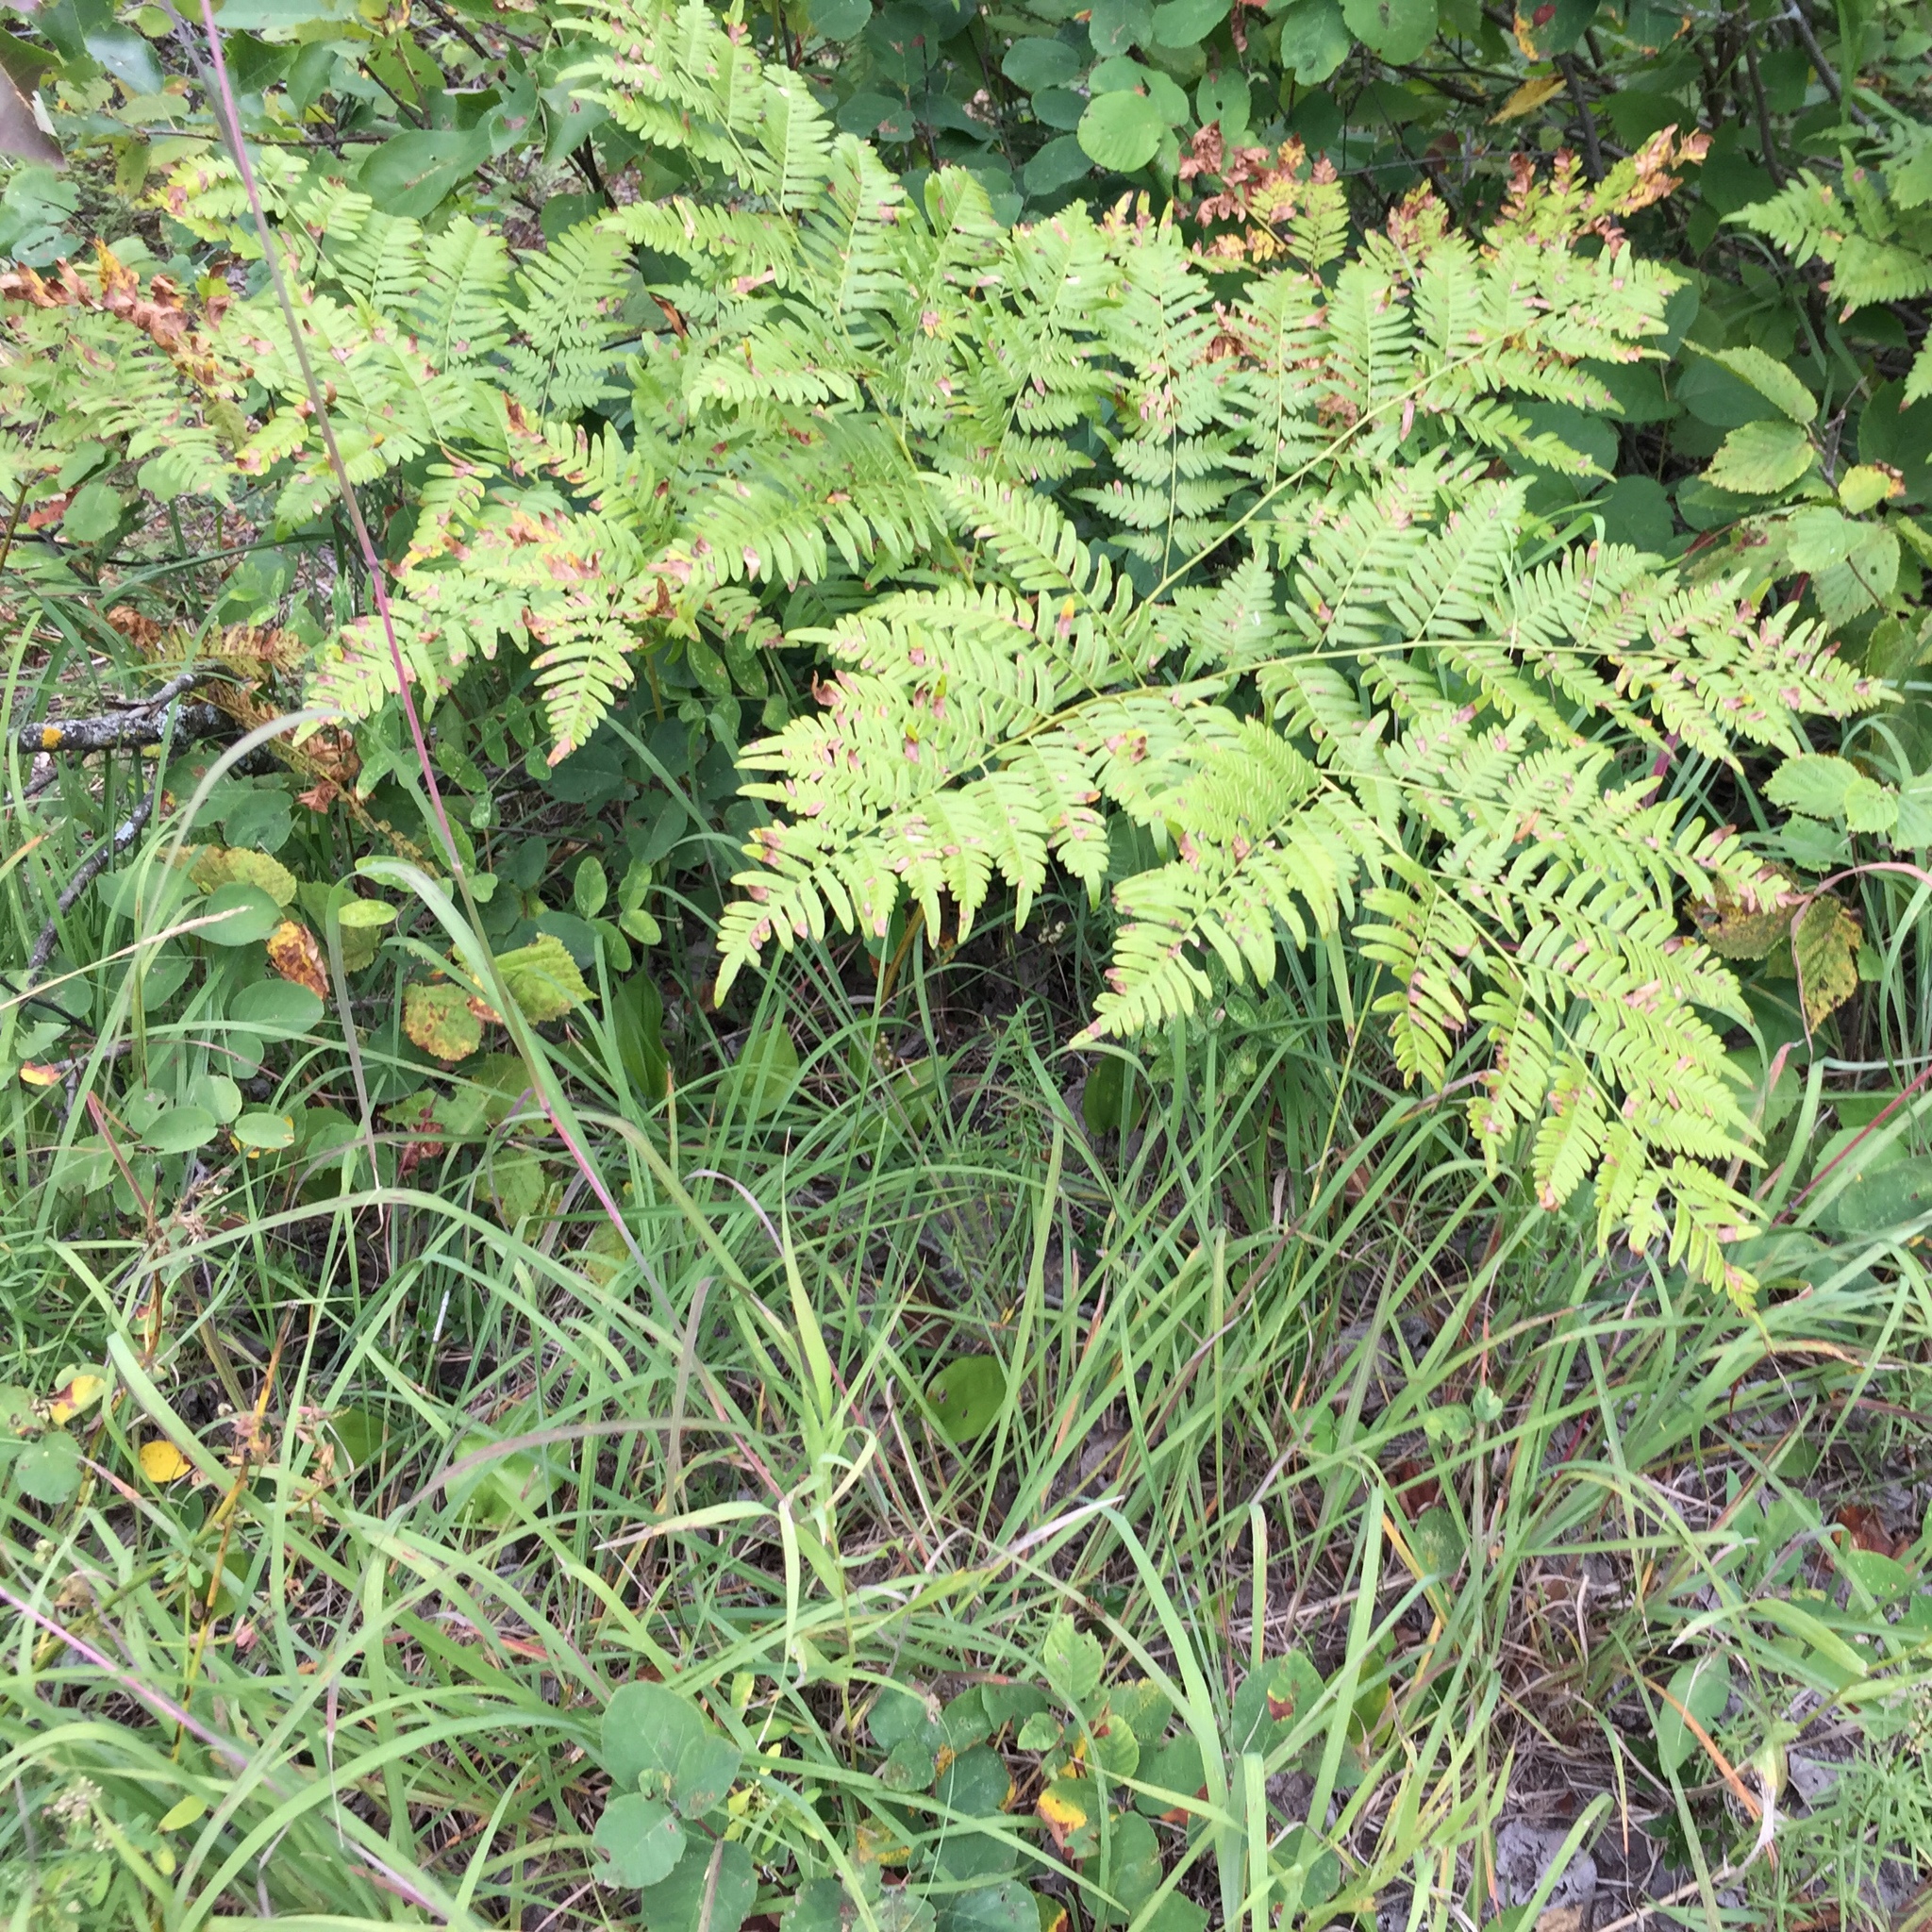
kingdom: Plantae
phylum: Tracheophyta
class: Polypodiopsida
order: Polypodiales
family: Dennstaedtiaceae
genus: Pteridium
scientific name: Pteridium aquilinum
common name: Bracken
